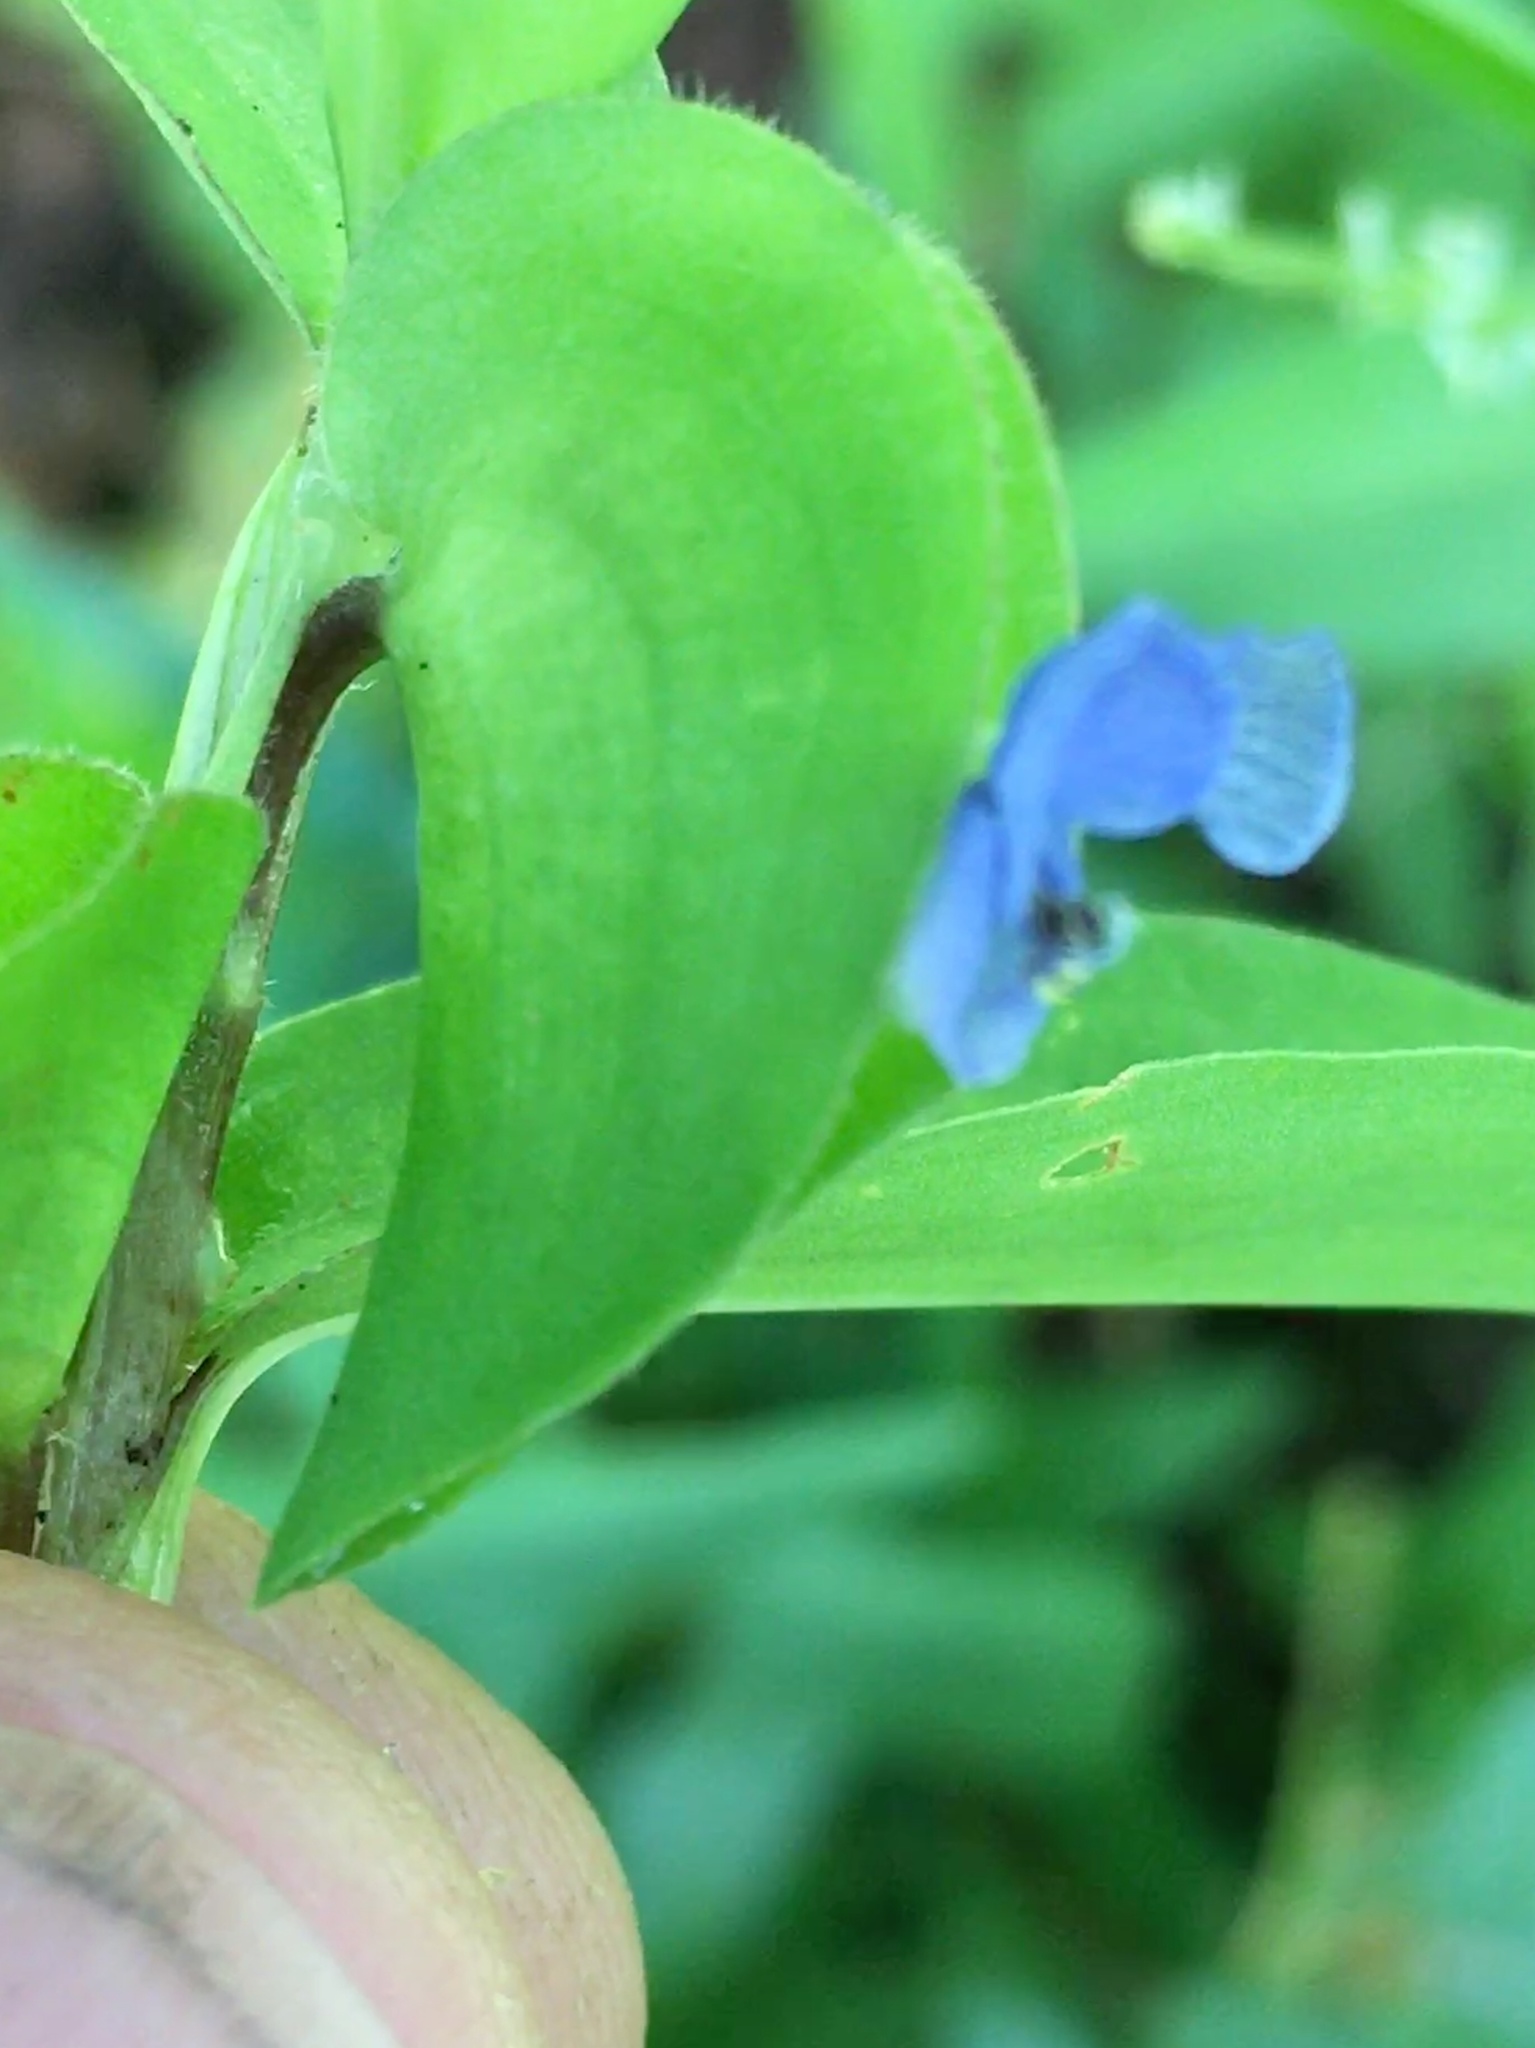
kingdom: Plantae
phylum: Tracheophyta
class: Liliopsida
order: Commelinales
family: Commelinaceae
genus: Commelina
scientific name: Commelina diffusa
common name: Climbing dayflower
